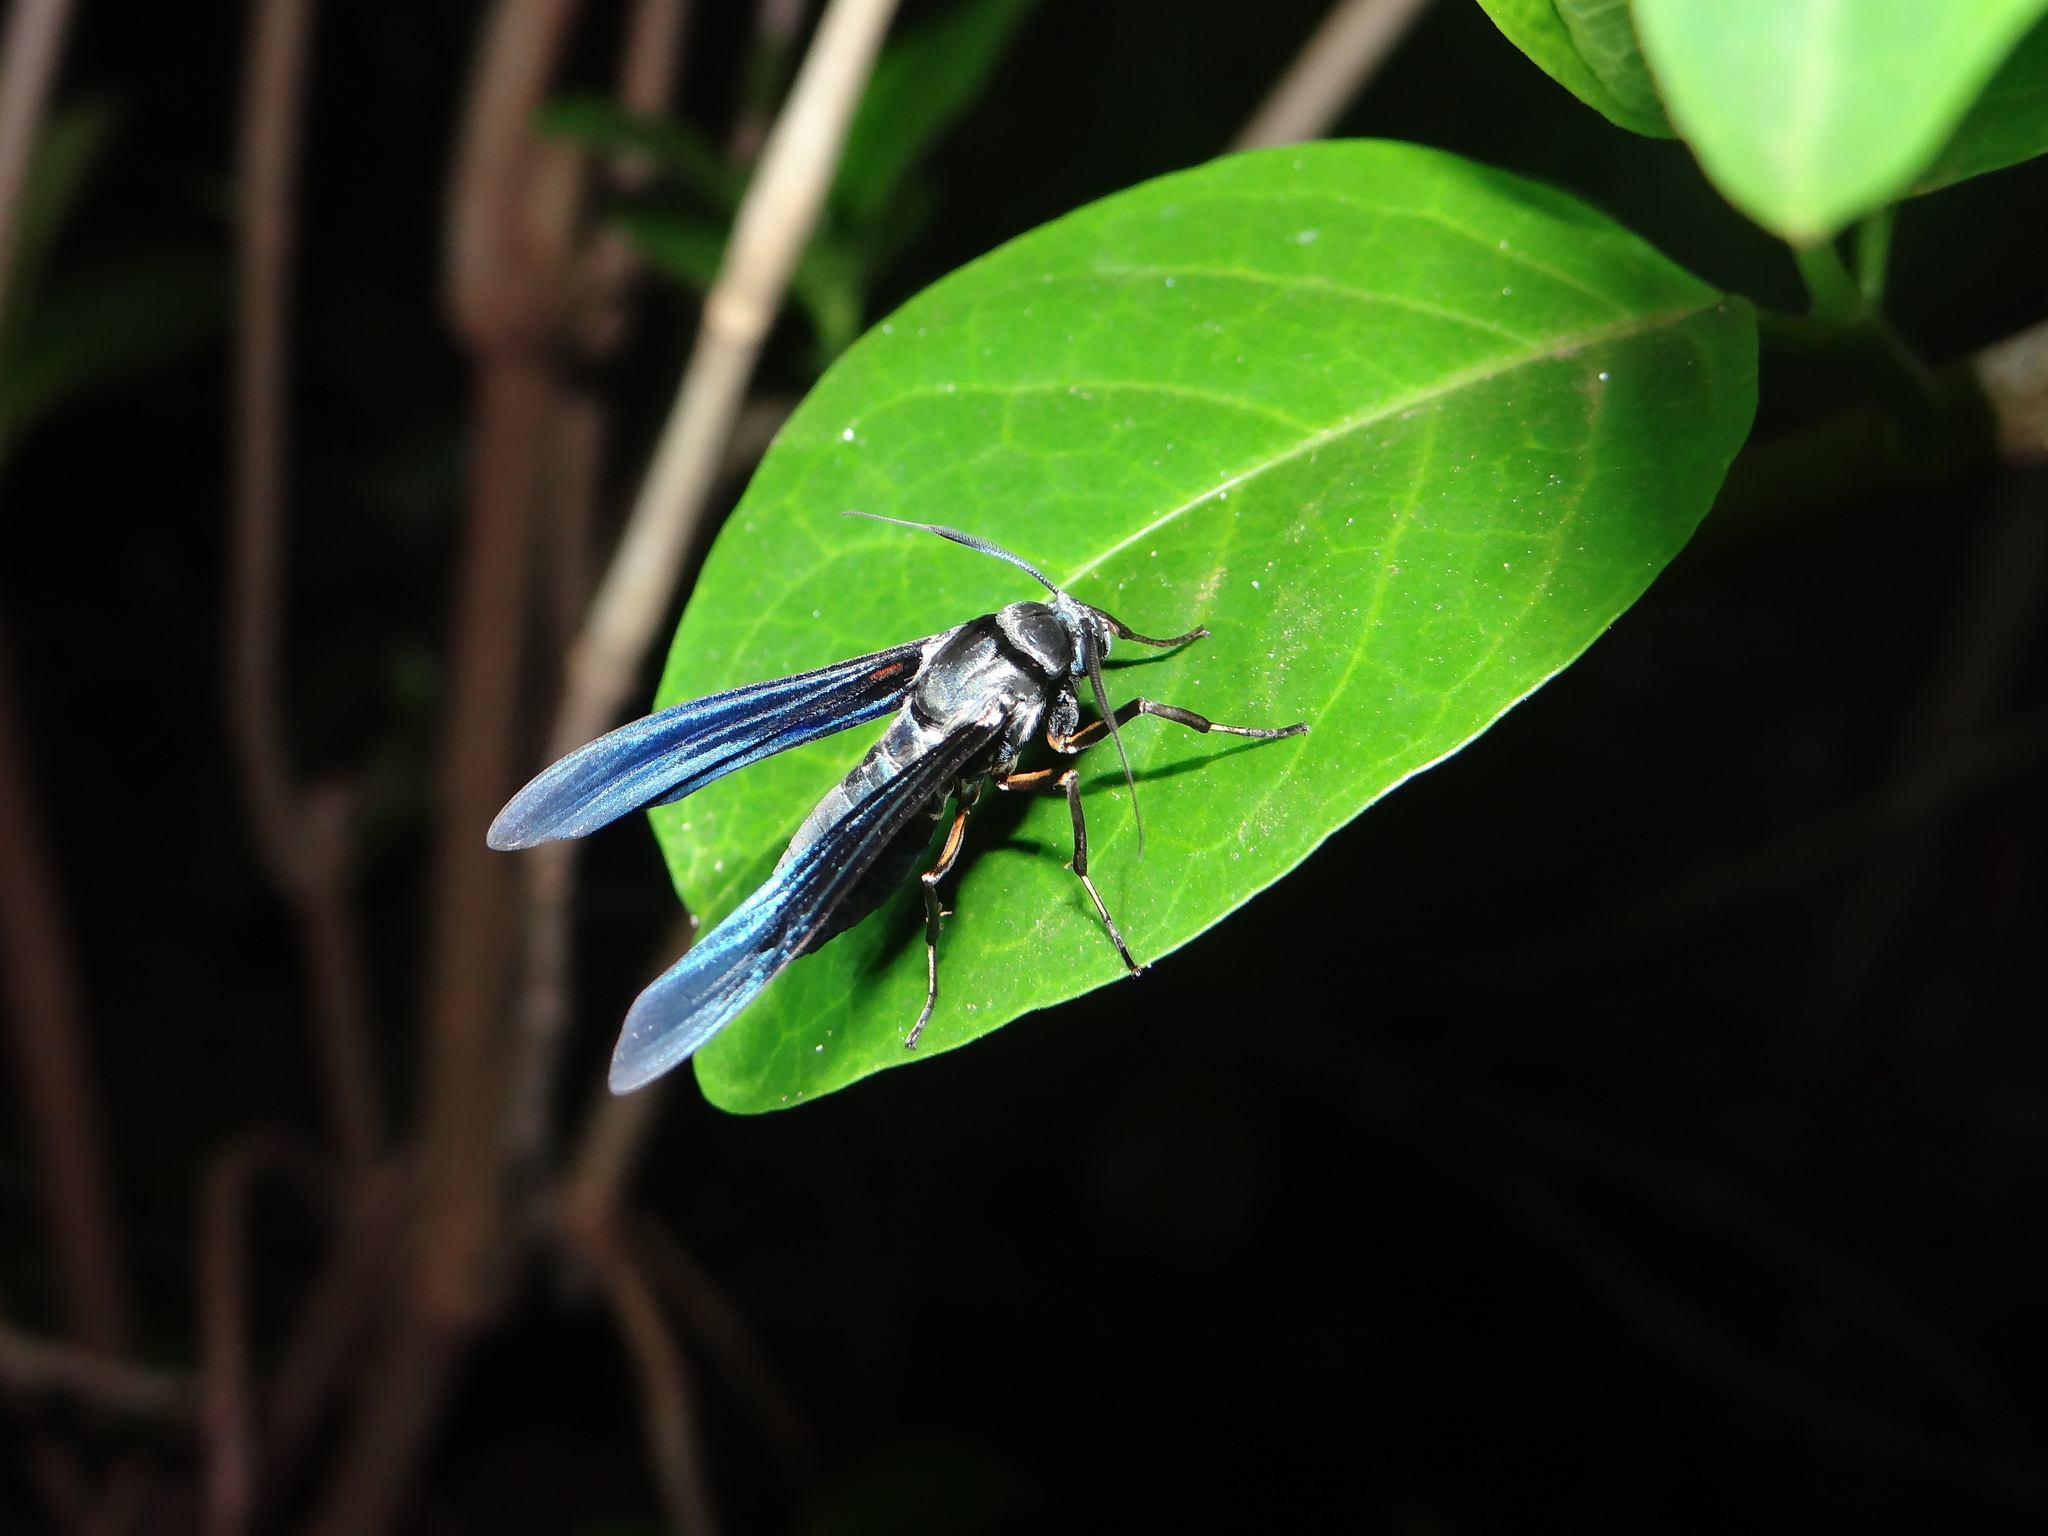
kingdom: Animalia
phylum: Arthropoda
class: Insecta
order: Lepidoptera
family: Erebidae
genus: Pseudopompilia
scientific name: Pseudopompilia mimica
